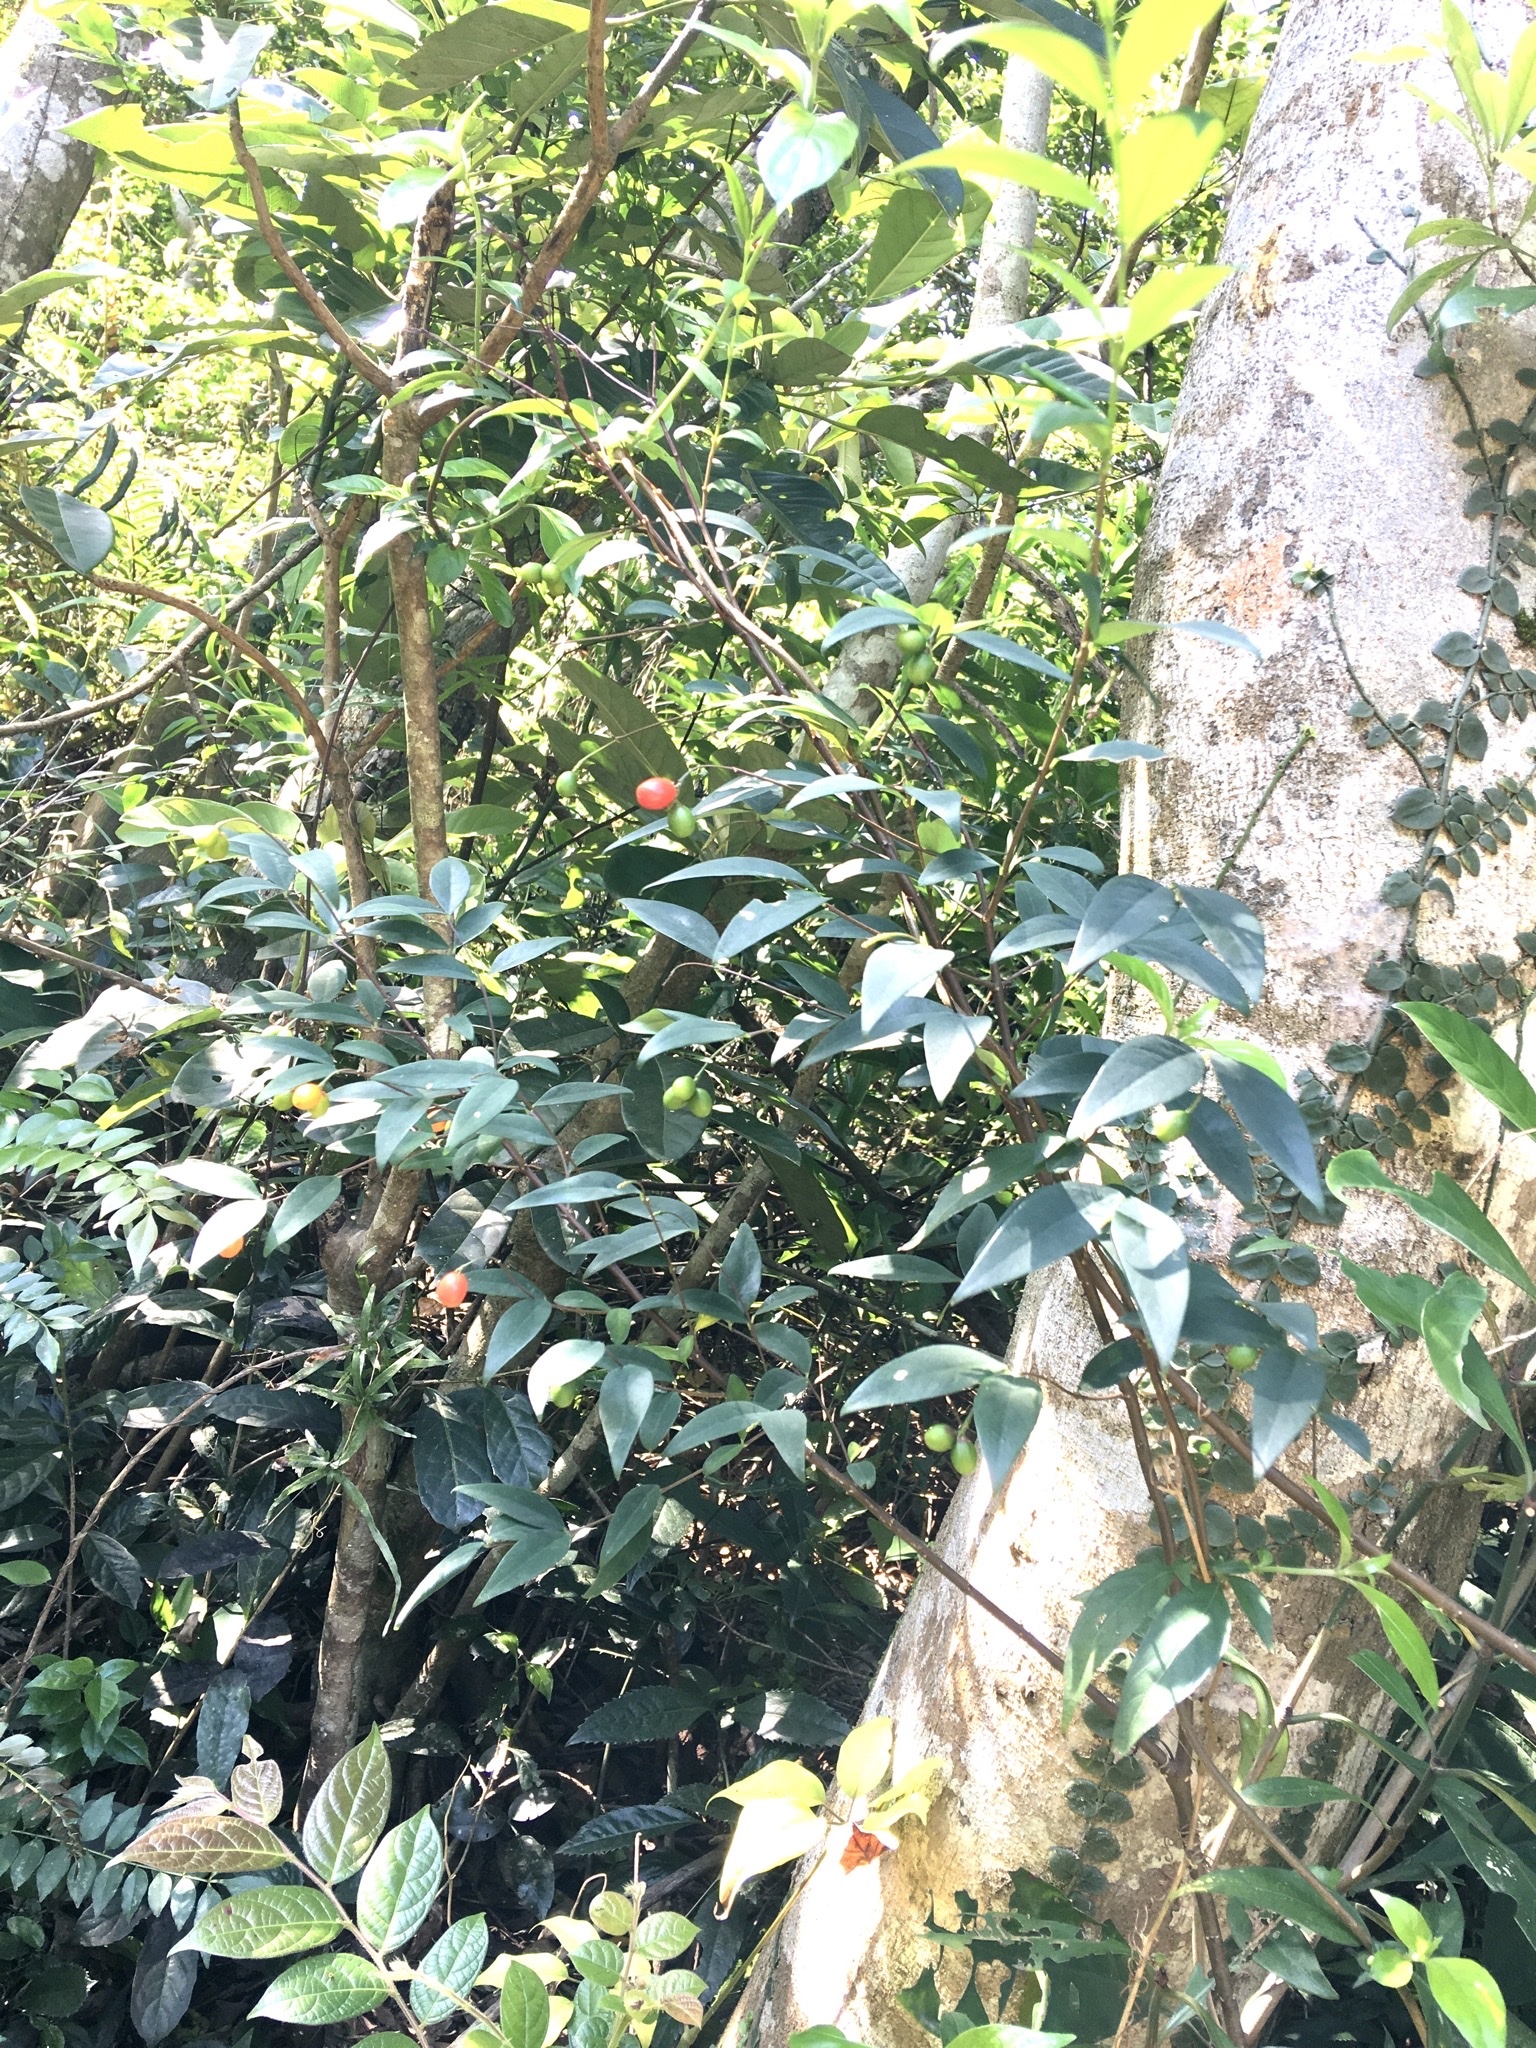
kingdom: Plantae
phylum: Tracheophyta
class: Magnoliopsida
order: Malvales
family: Thymelaeaceae
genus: Wikstroemia
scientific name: Wikstroemia nutans
